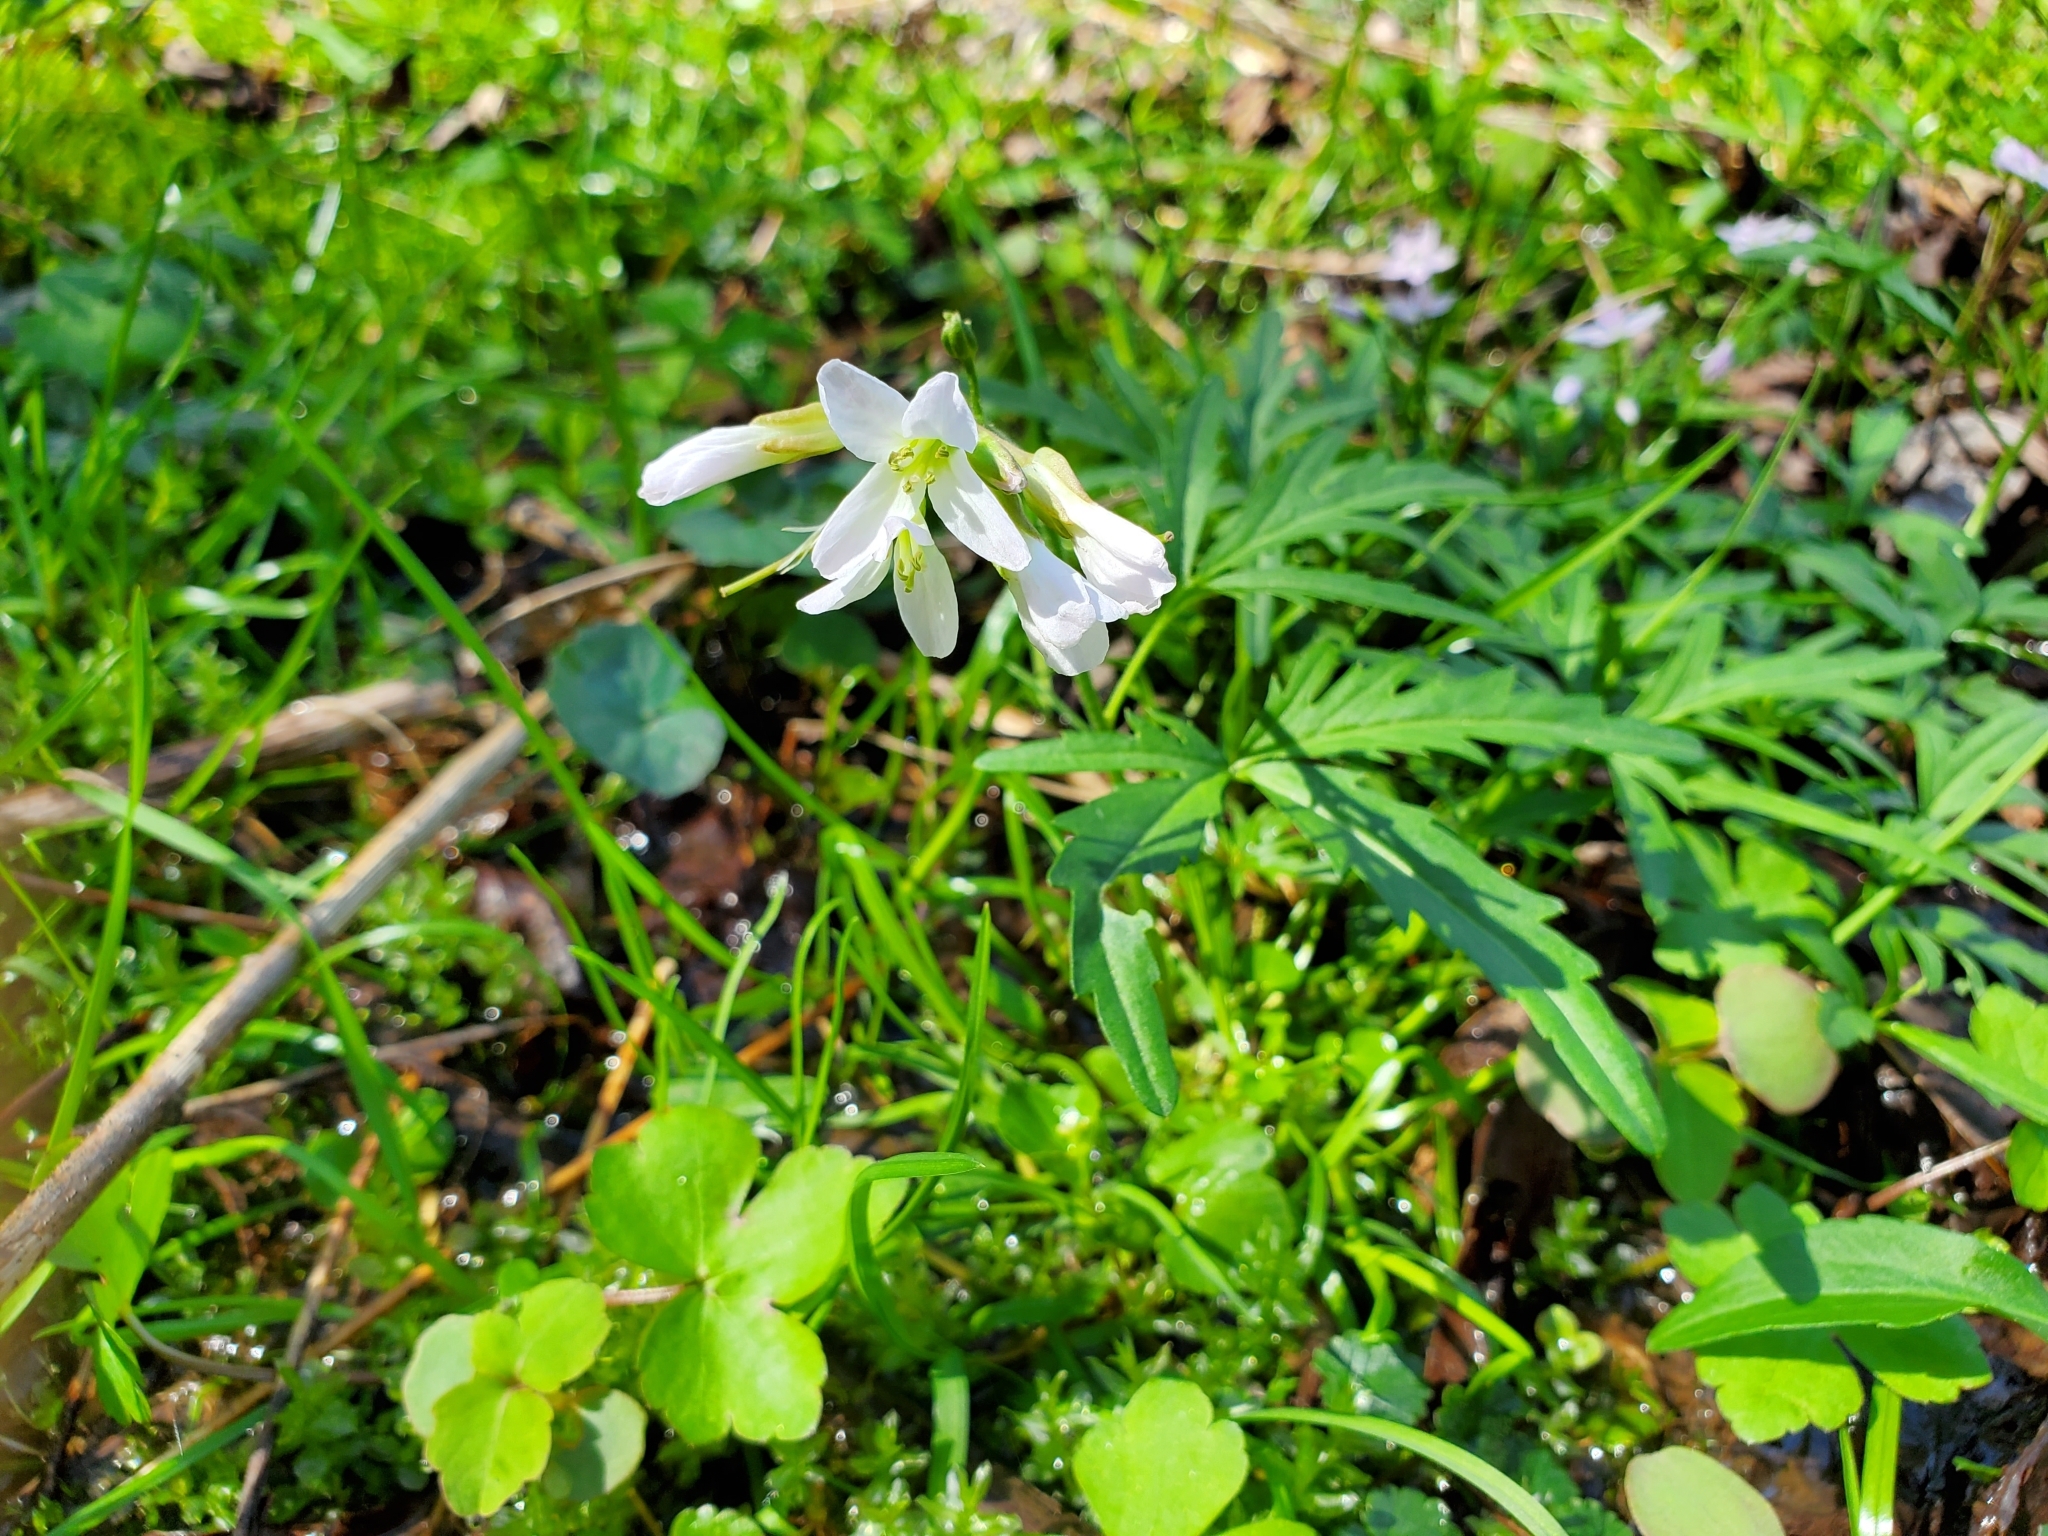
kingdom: Plantae
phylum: Tracheophyta
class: Magnoliopsida
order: Brassicales
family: Brassicaceae
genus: Cardamine
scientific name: Cardamine concatenata
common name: Cut-leaf toothcup
